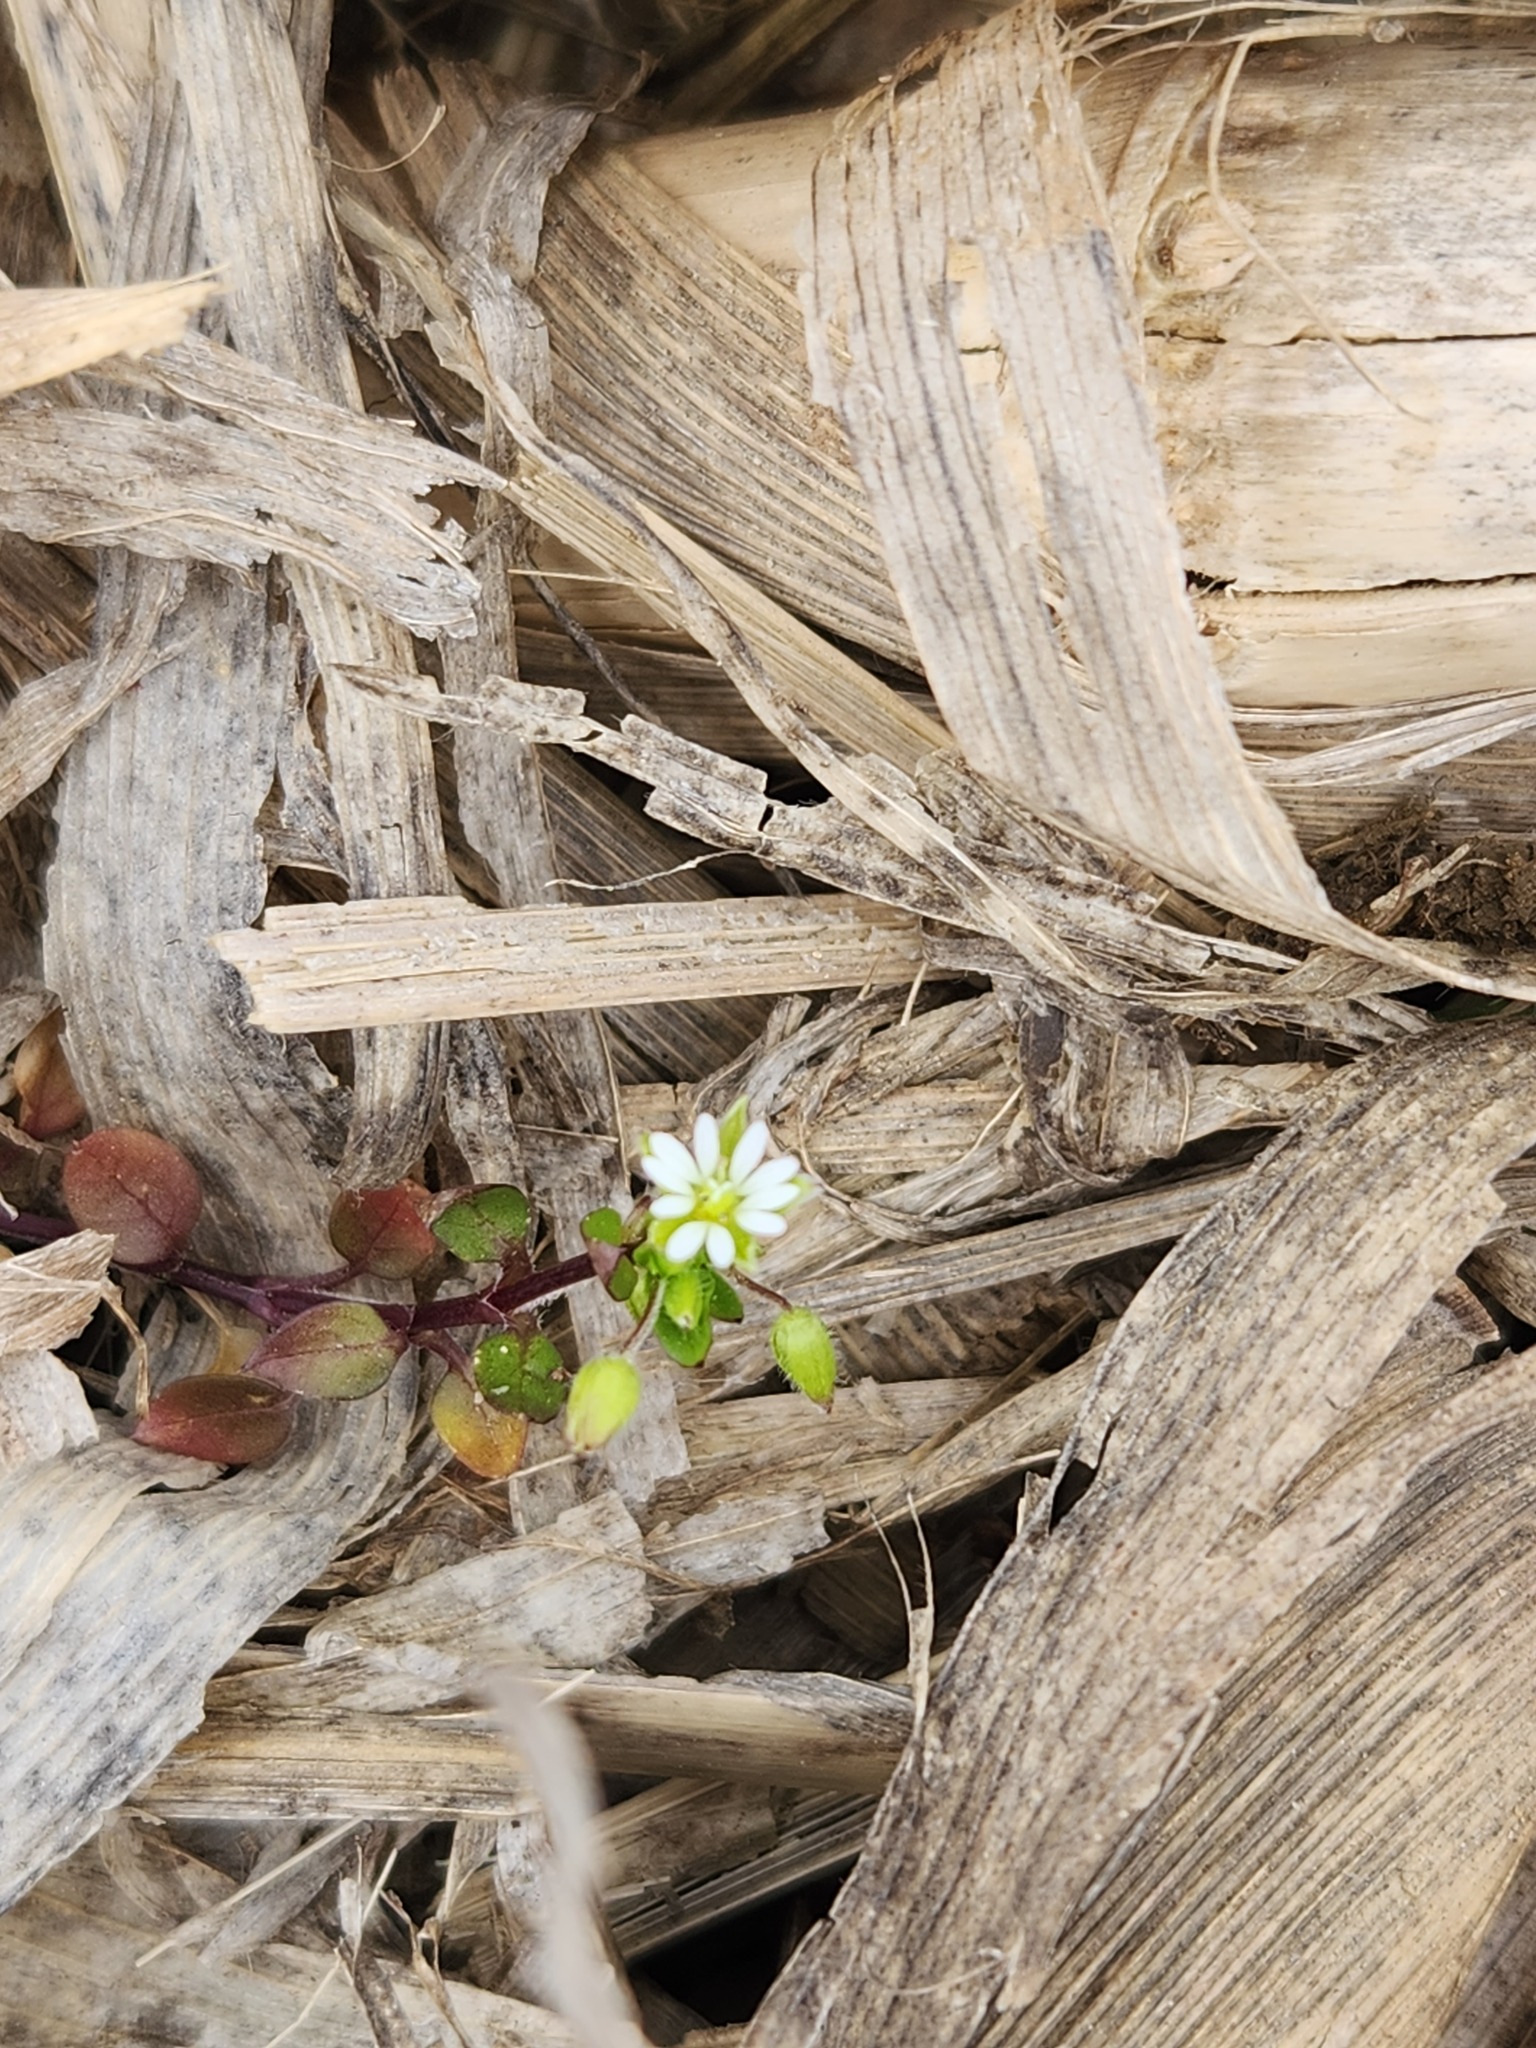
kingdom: Plantae
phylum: Tracheophyta
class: Magnoliopsida
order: Caryophyllales
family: Caryophyllaceae
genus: Stellaria
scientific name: Stellaria media
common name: Common chickweed
